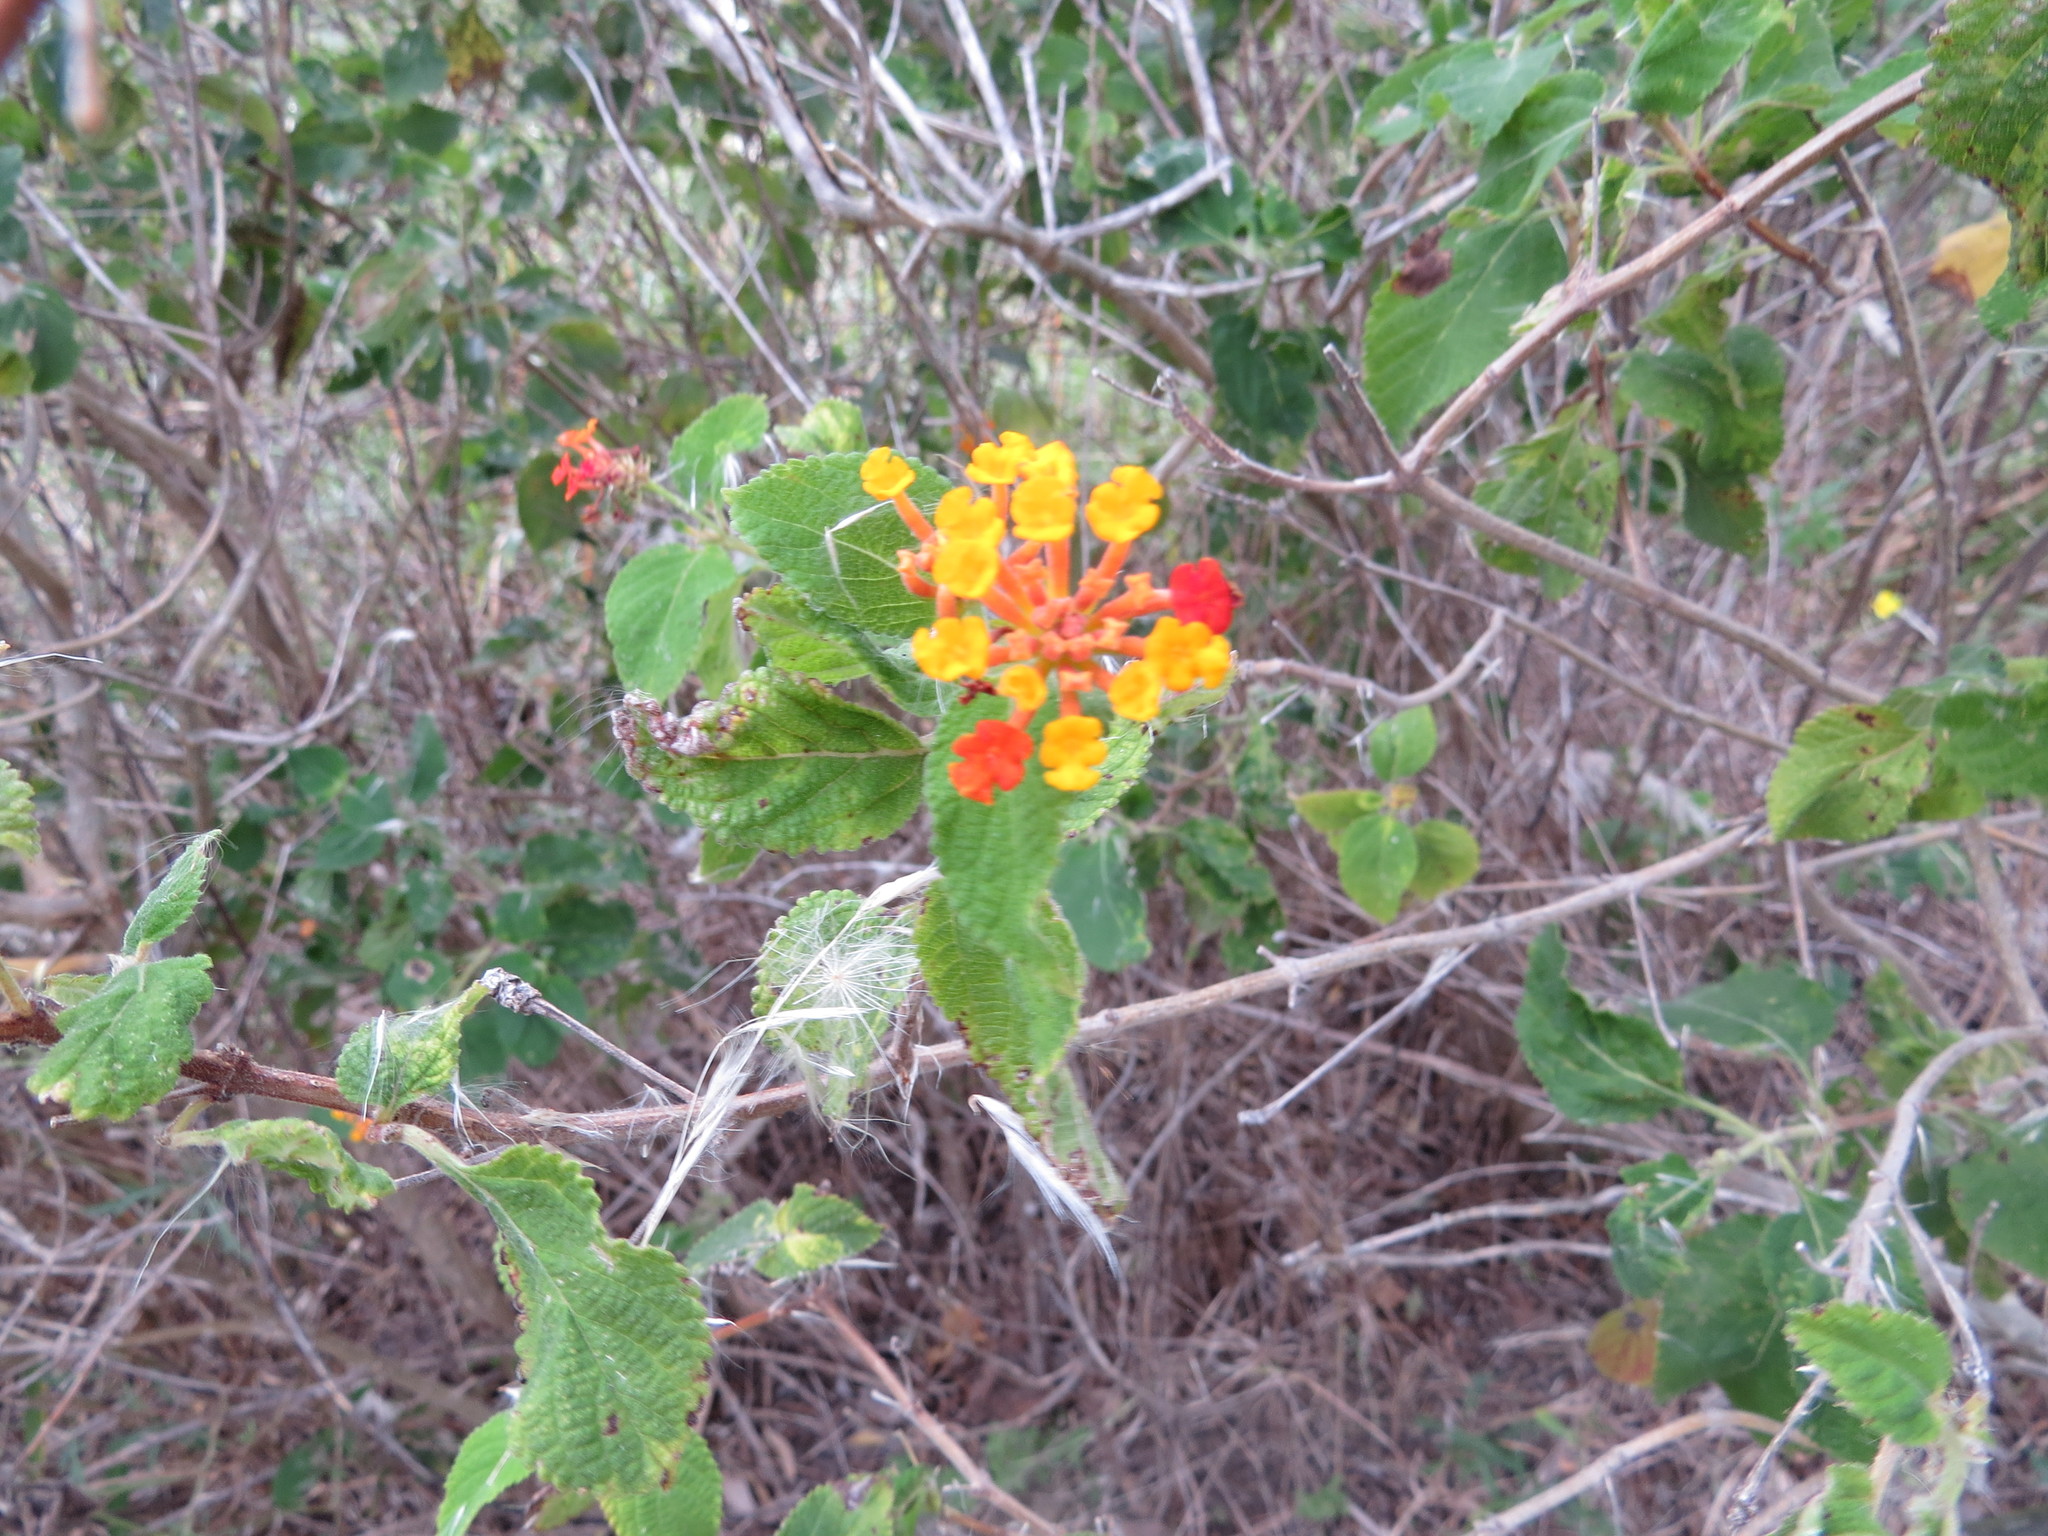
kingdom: Plantae
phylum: Tracheophyta
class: Magnoliopsida
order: Lamiales
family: Verbenaceae
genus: Lantana
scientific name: Lantana camara
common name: Lantana
